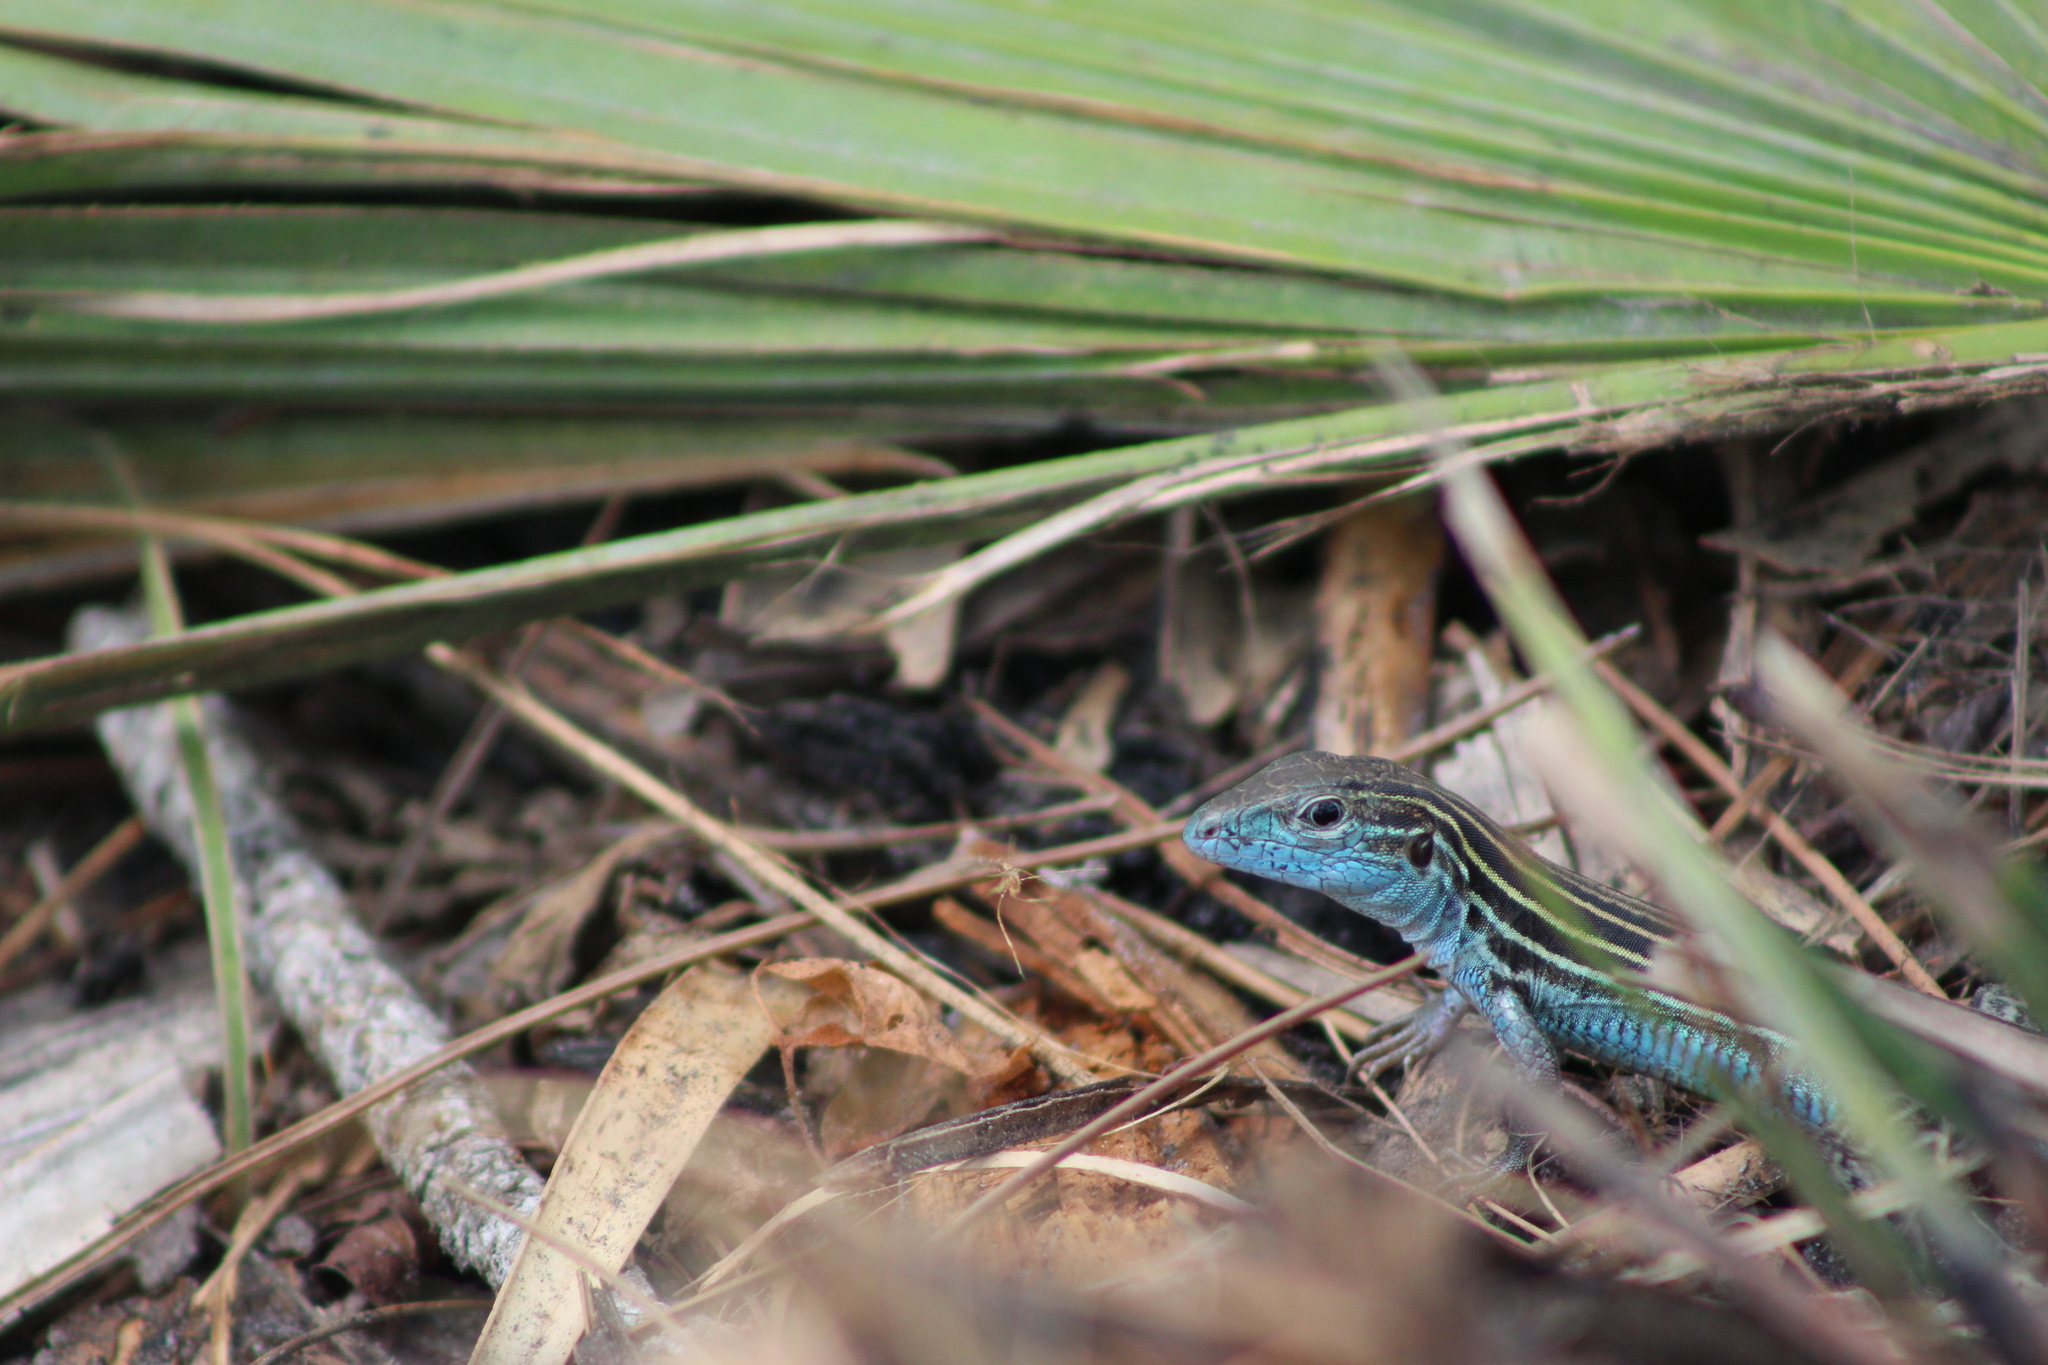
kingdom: Animalia
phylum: Chordata
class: Squamata
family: Teiidae
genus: Aspidoscelis
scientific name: Aspidoscelis sexlineatus
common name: Six-lined racerunner
